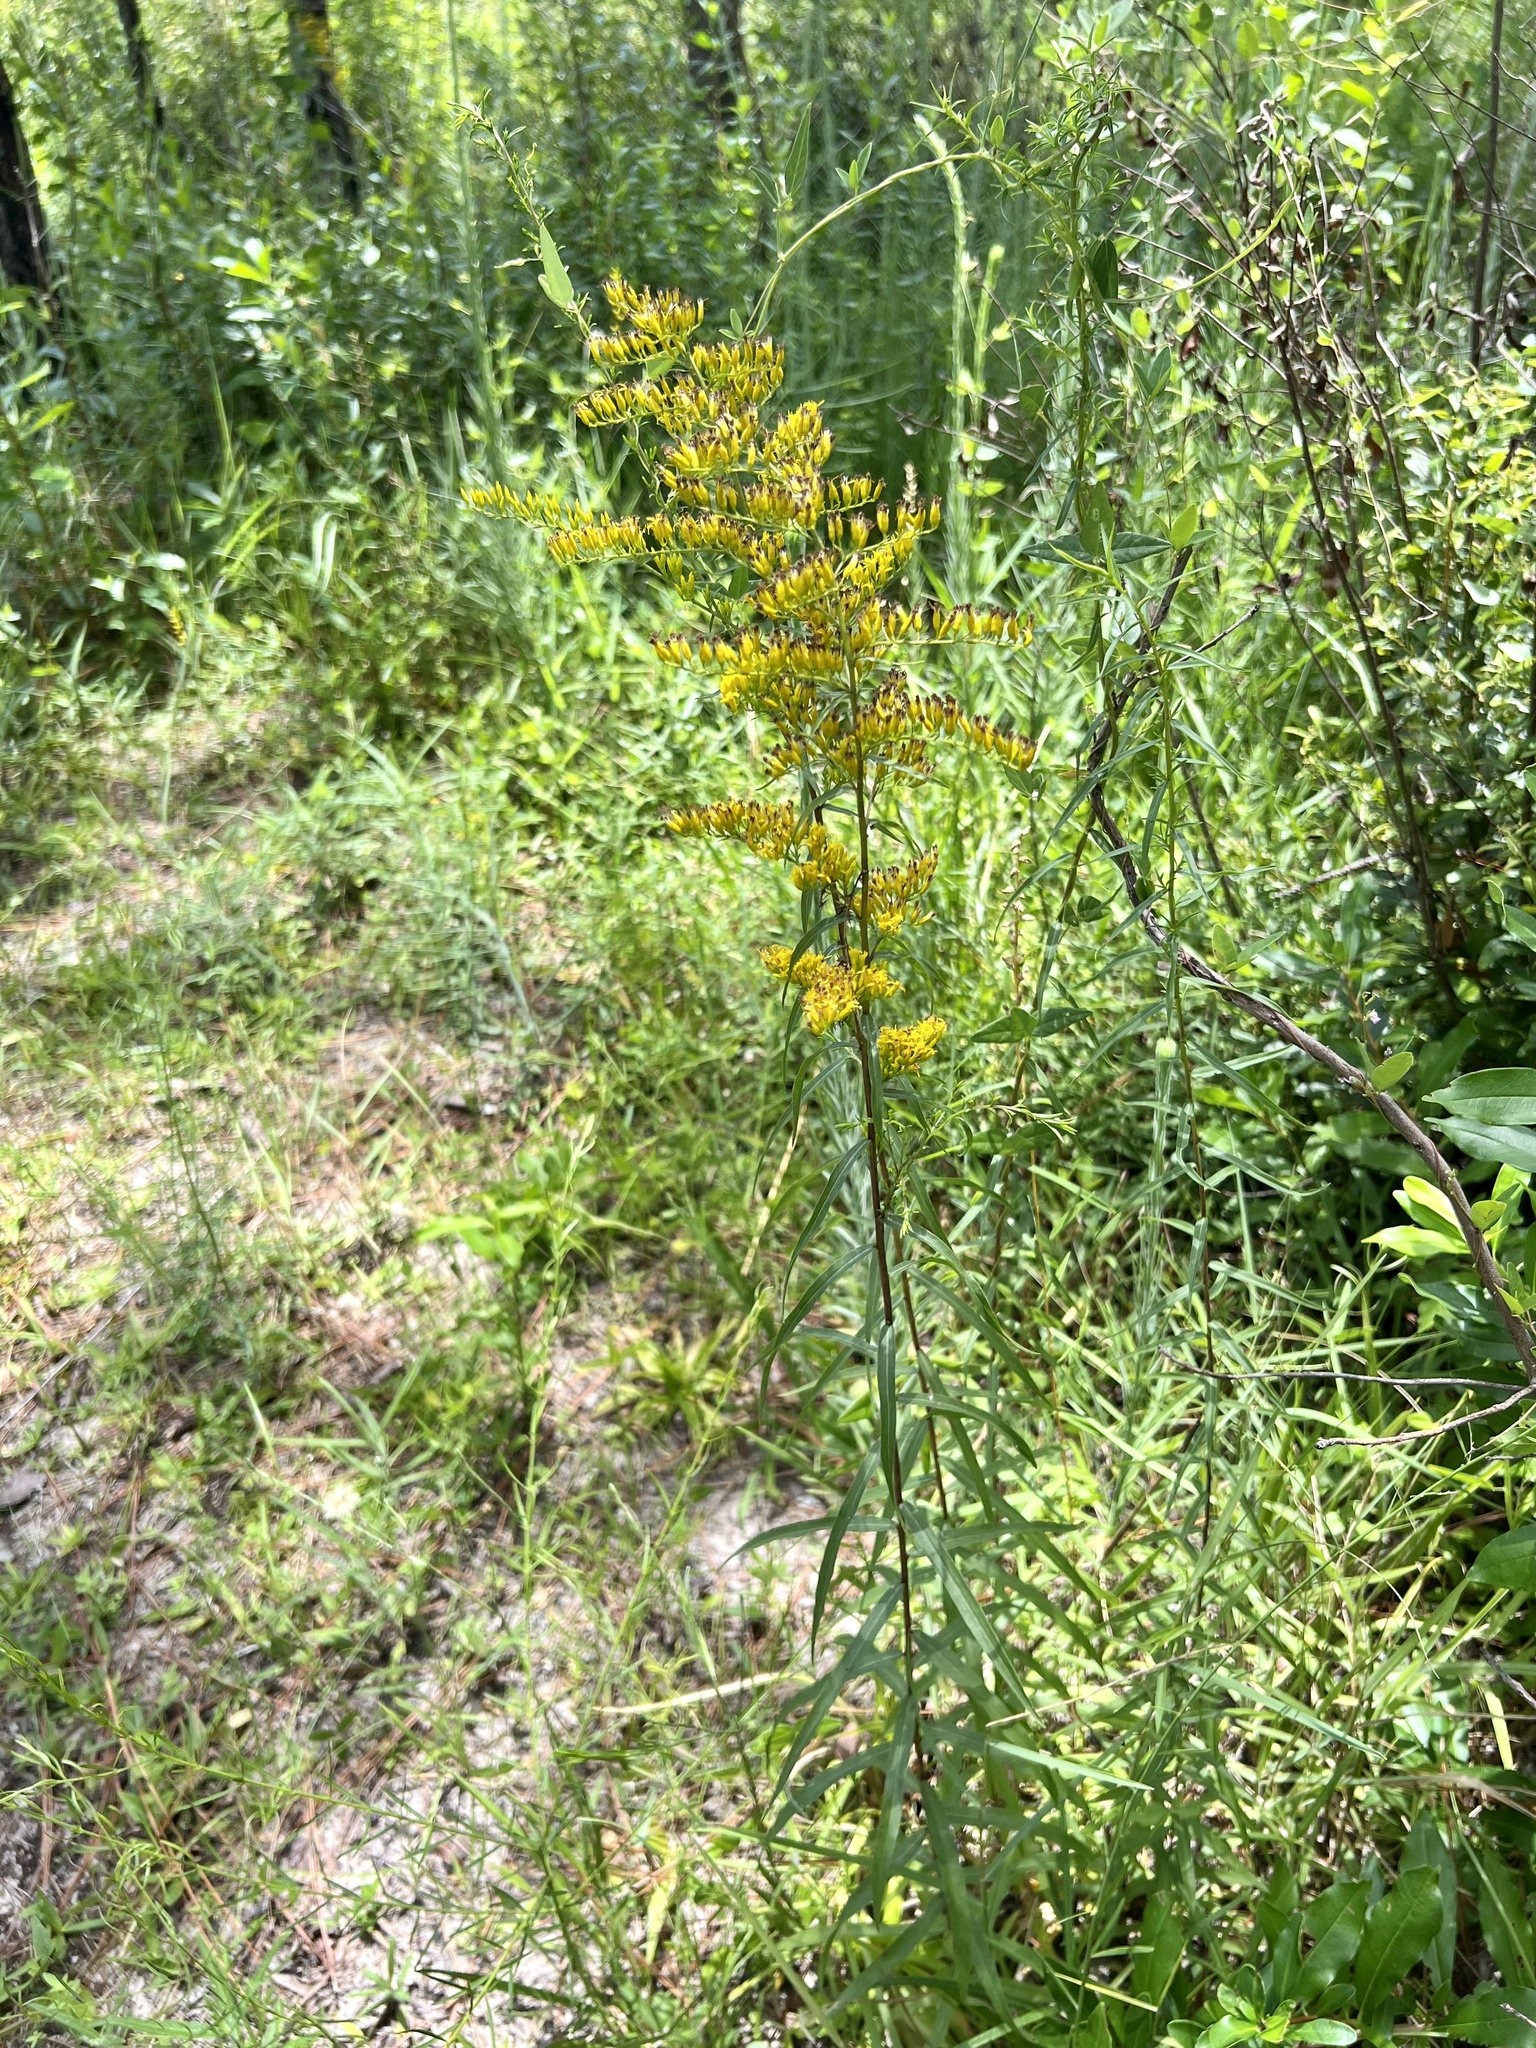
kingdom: Plantae
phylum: Tracheophyta
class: Magnoliopsida
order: Asterales
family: Asteraceae
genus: Solidago
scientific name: Solidago odora
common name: Anise-scented goldenrod
